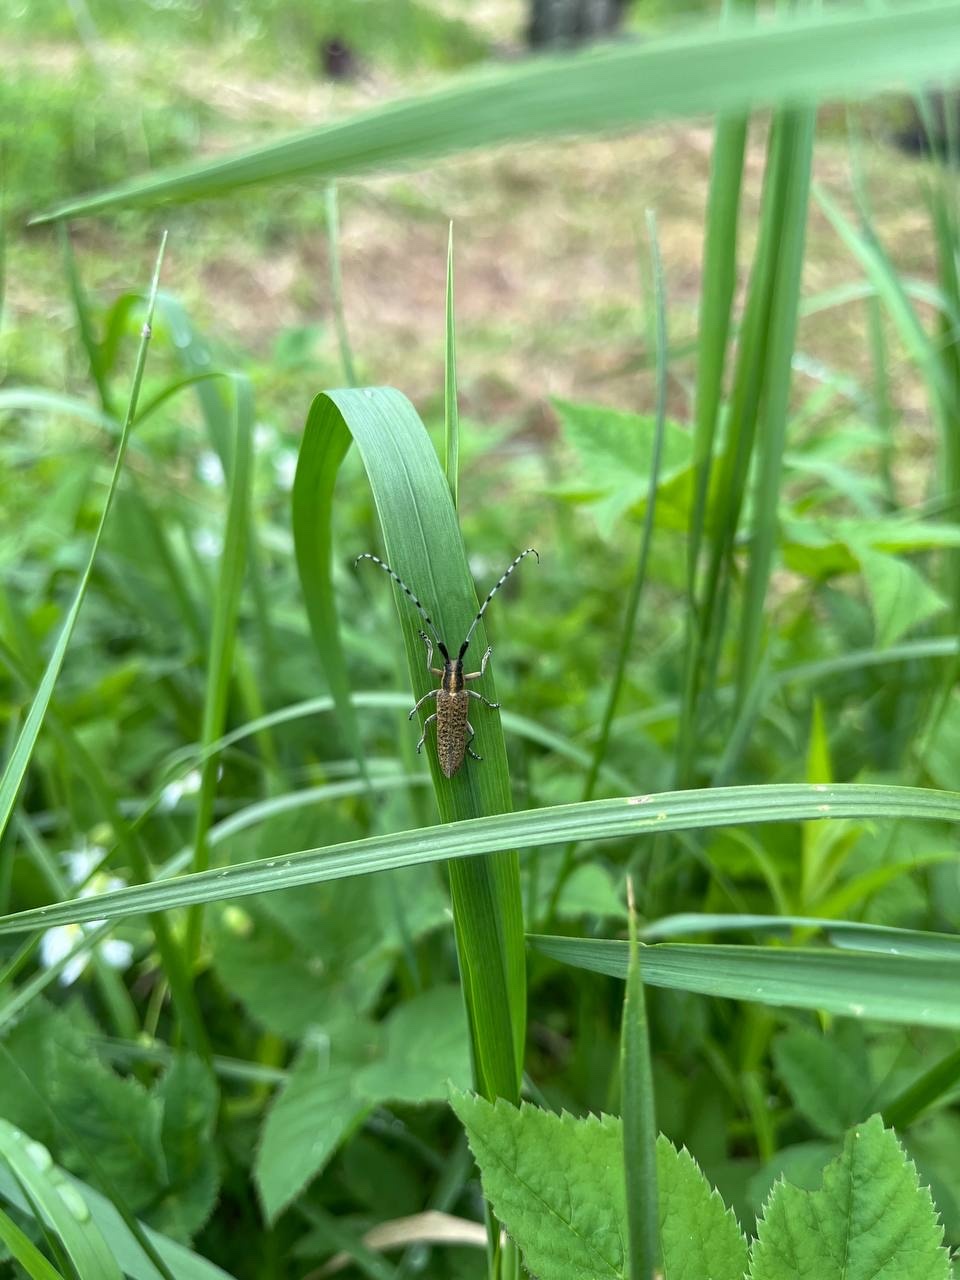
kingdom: Animalia
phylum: Arthropoda
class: Insecta
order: Coleoptera
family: Cerambycidae
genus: Agapanthia
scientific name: Agapanthia villosoviridescens
